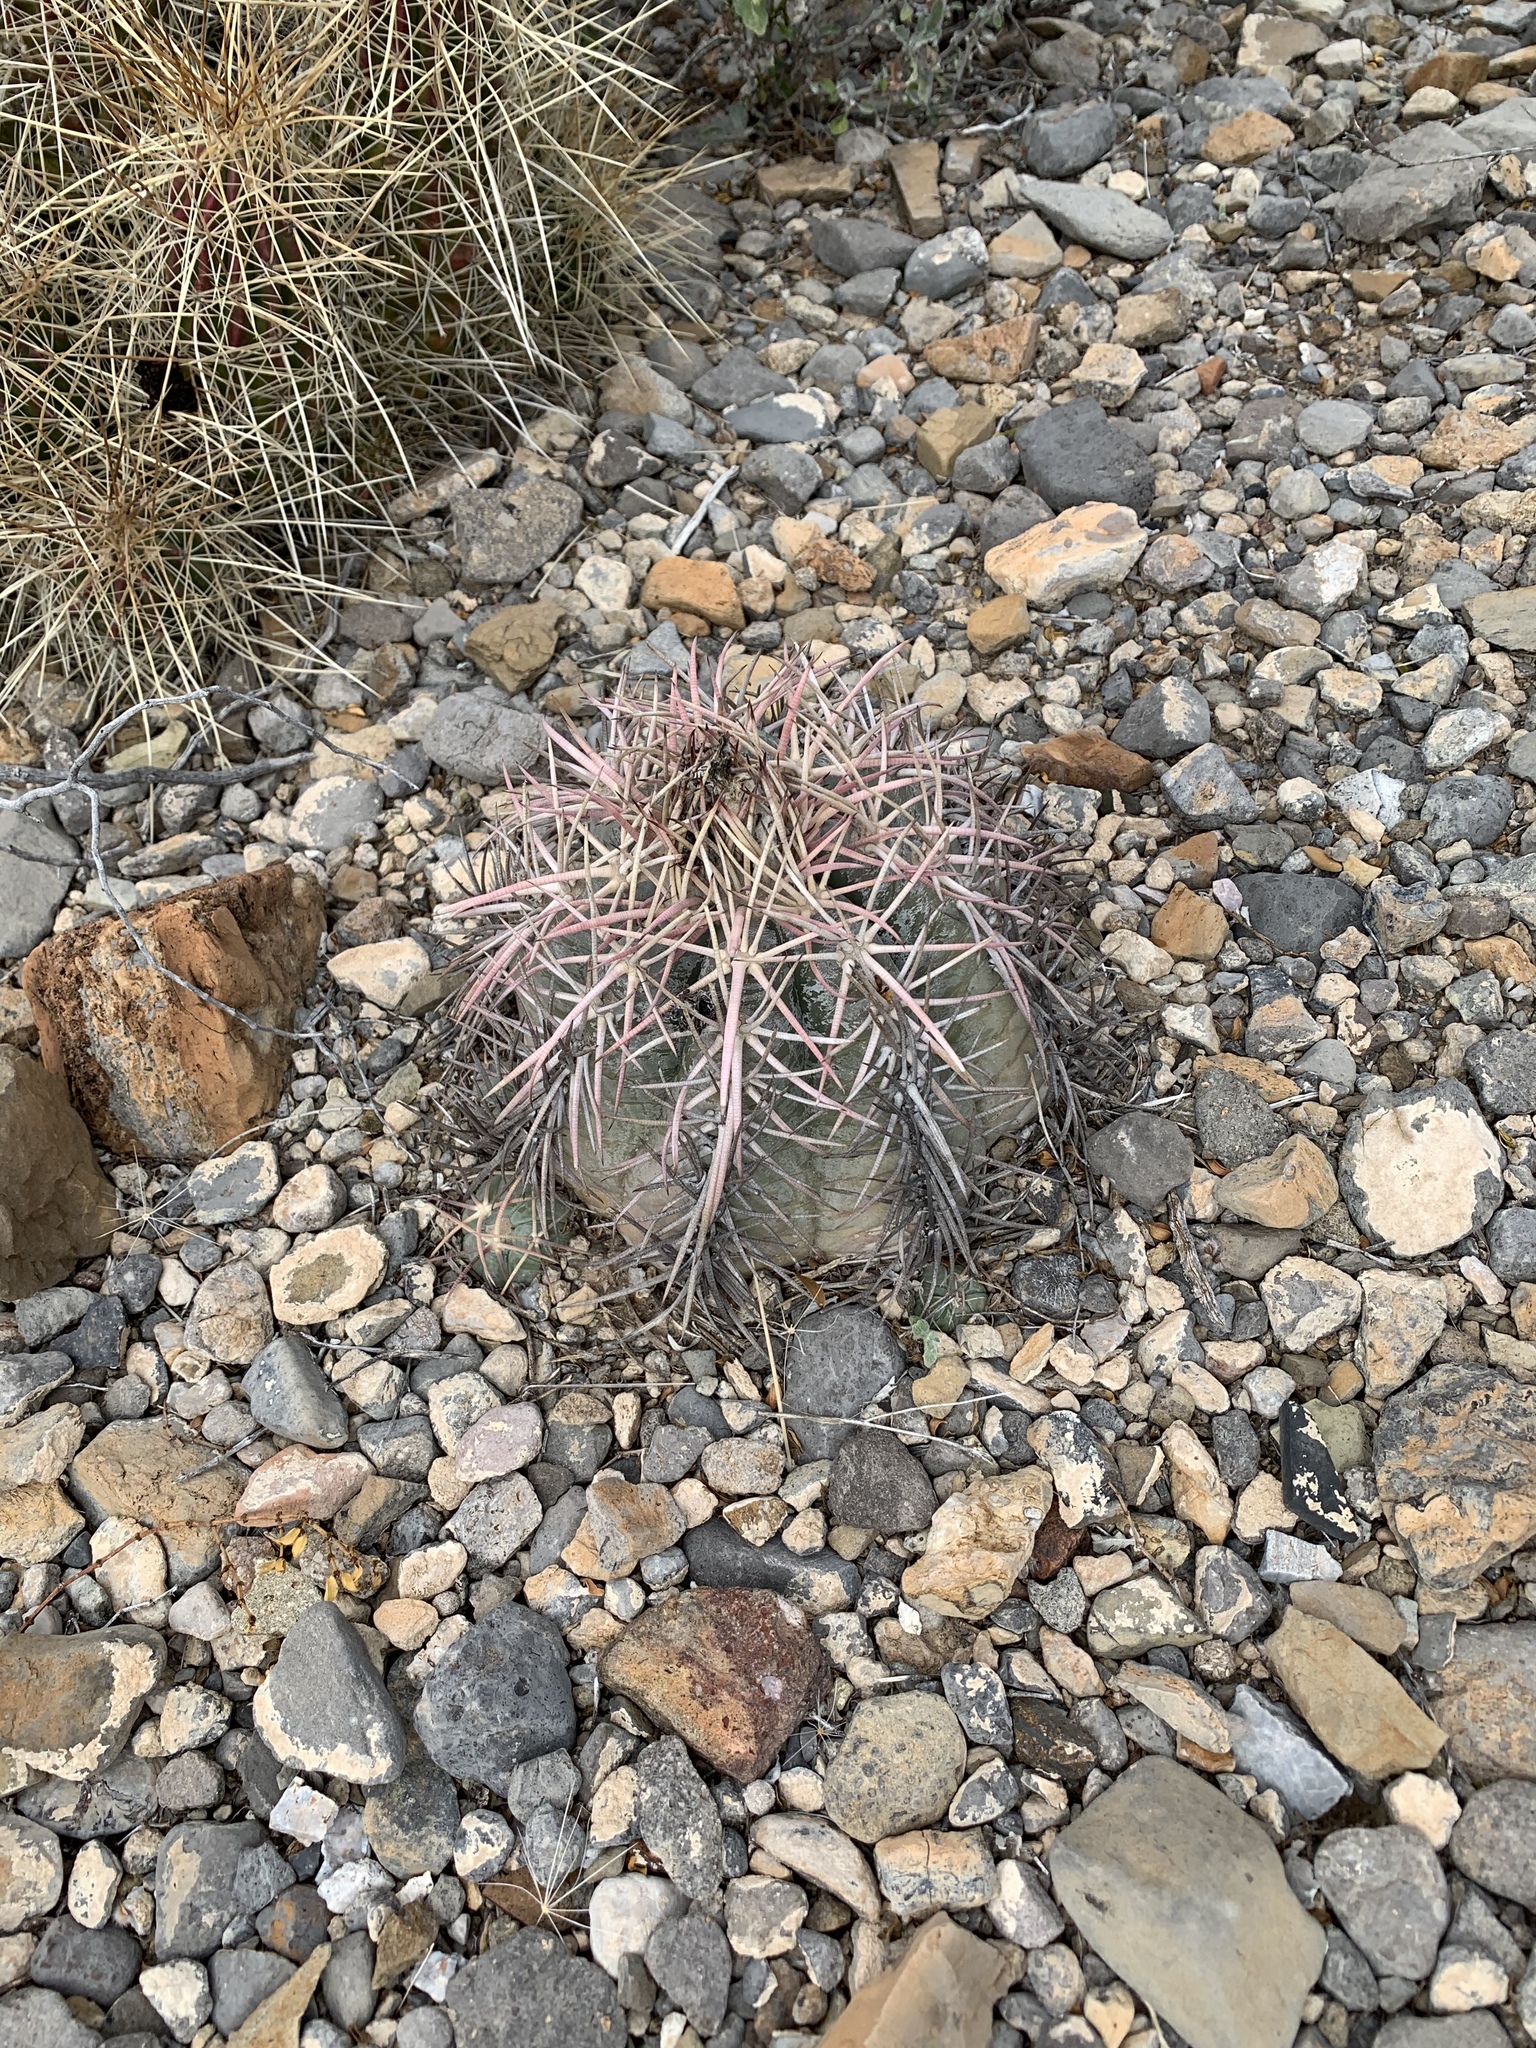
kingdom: Plantae
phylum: Tracheophyta
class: Magnoliopsida
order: Caryophyllales
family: Cactaceae
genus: Echinocactus
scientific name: Echinocactus horizonthalonius
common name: Devilshead
